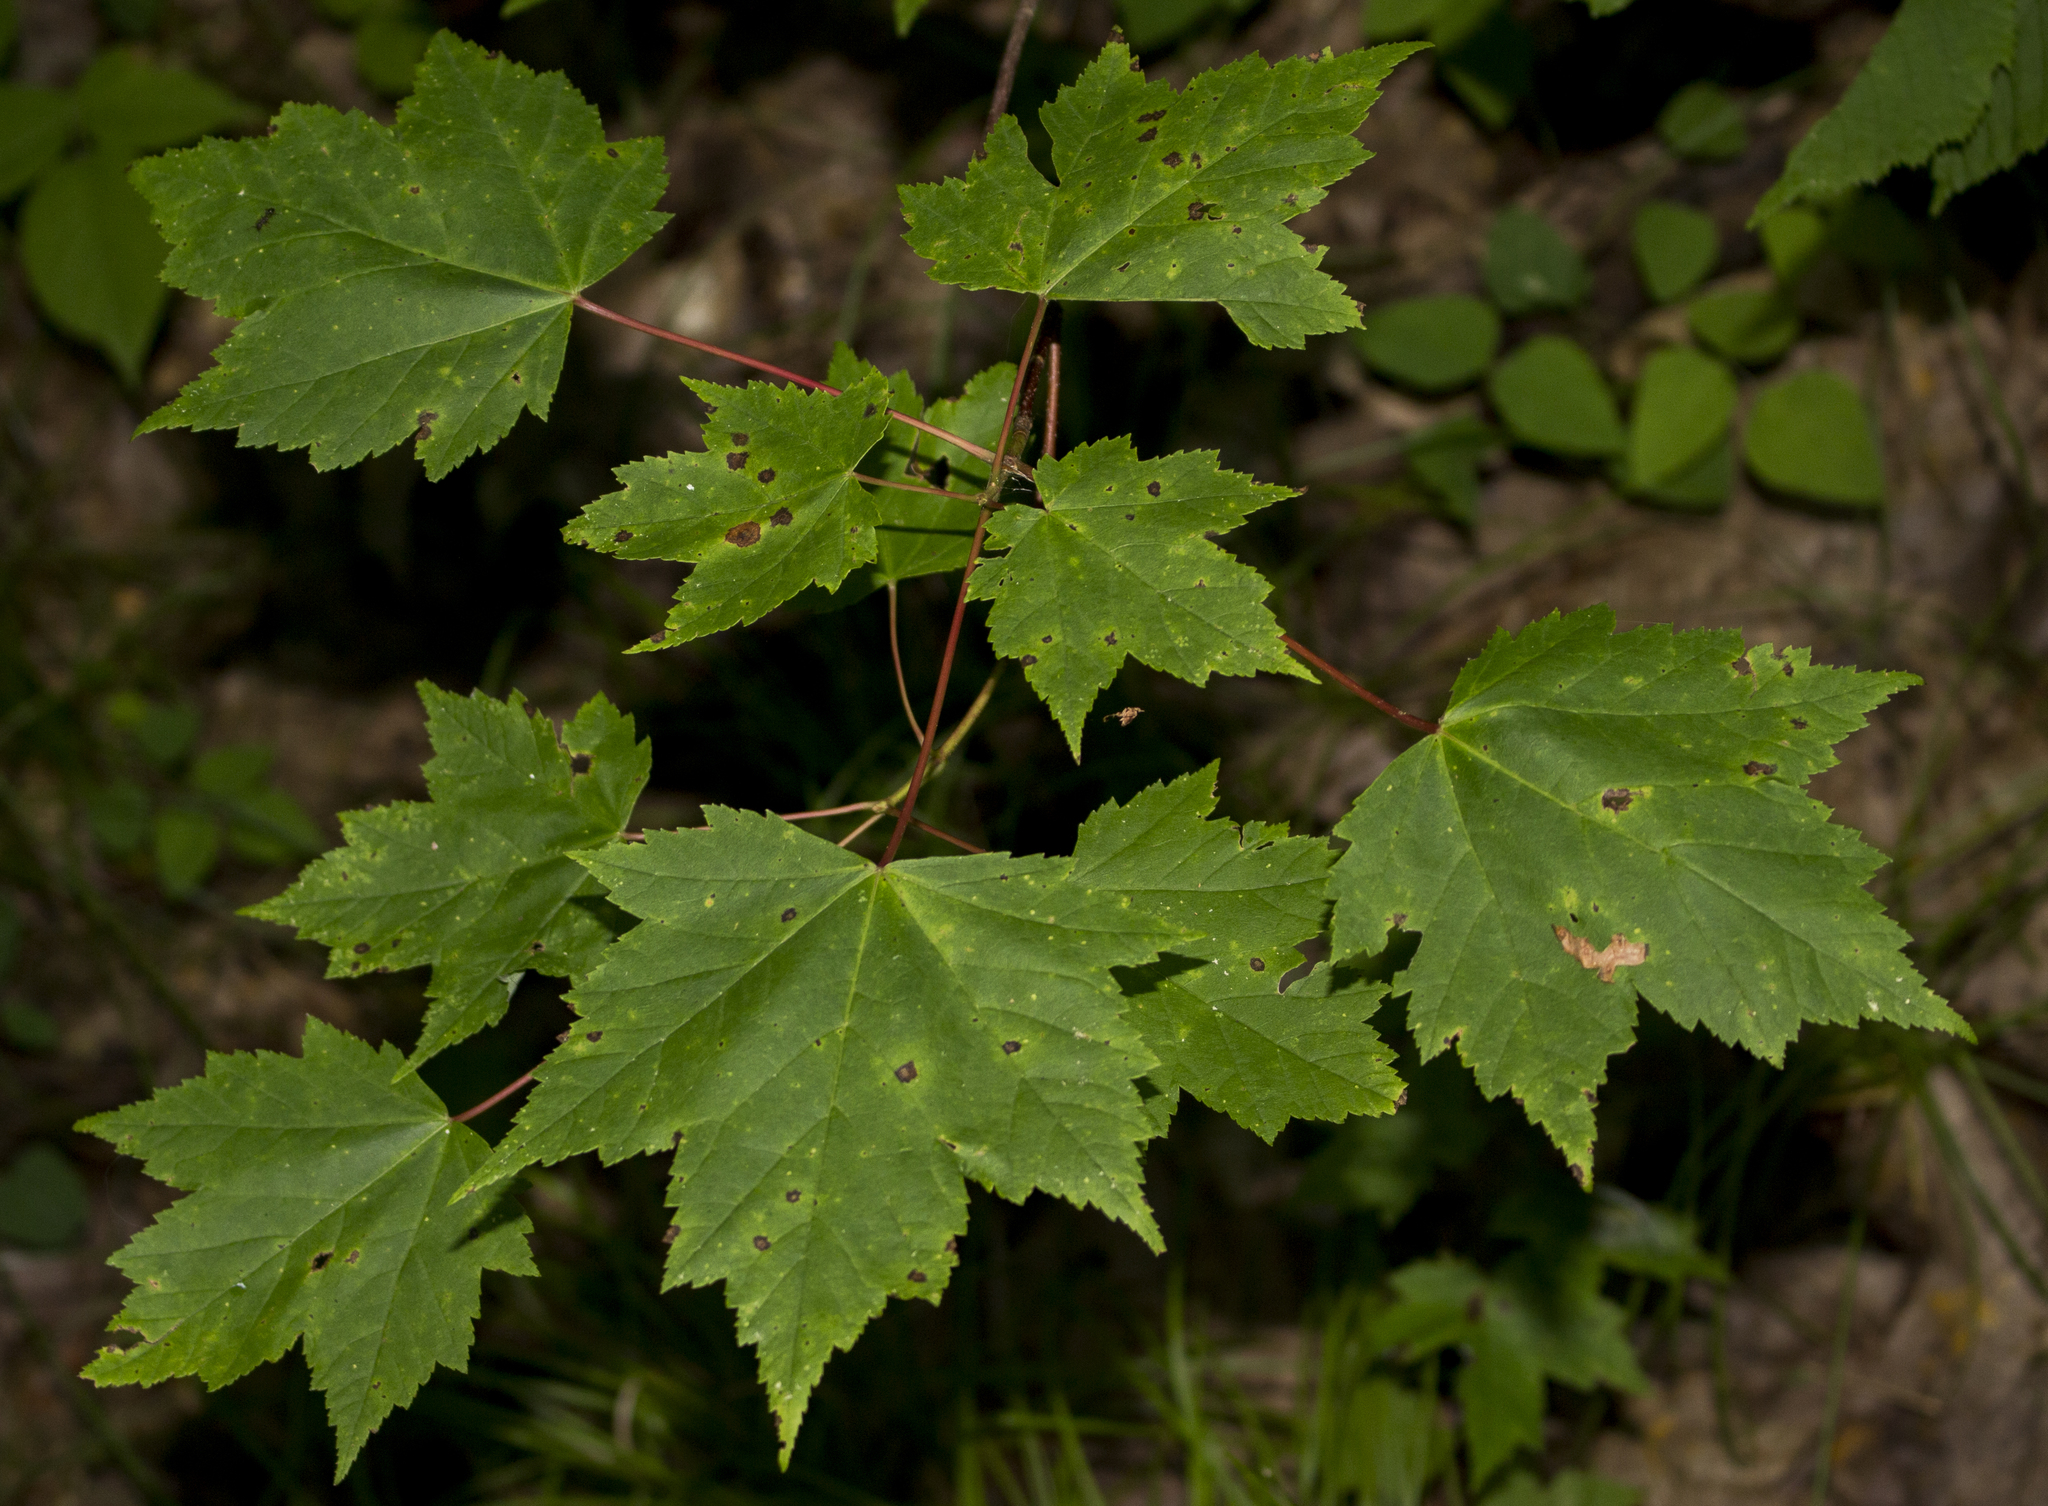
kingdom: Plantae
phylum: Tracheophyta
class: Magnoliopsida
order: Sapindales
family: Sapindaceae
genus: Acer
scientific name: Acer rubrum
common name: Red maple
